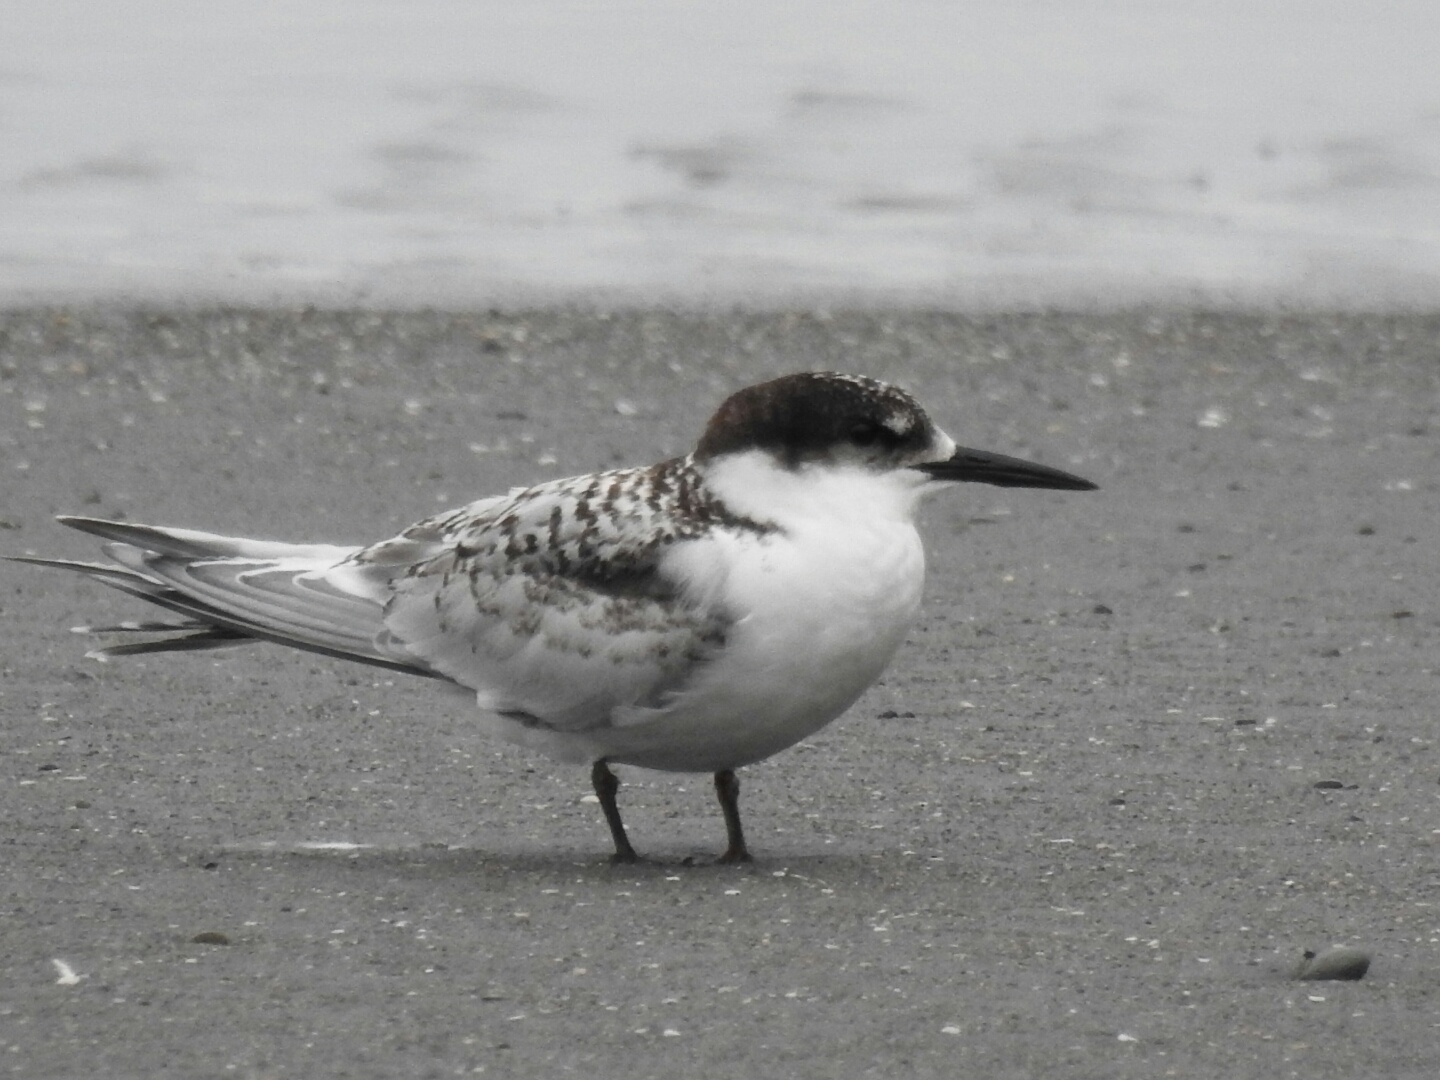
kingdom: Animalia
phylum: Chordata
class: Aves
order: Charadriiformes
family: Laridae
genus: Sterna
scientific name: Sterna striata
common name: White-fronted tern
